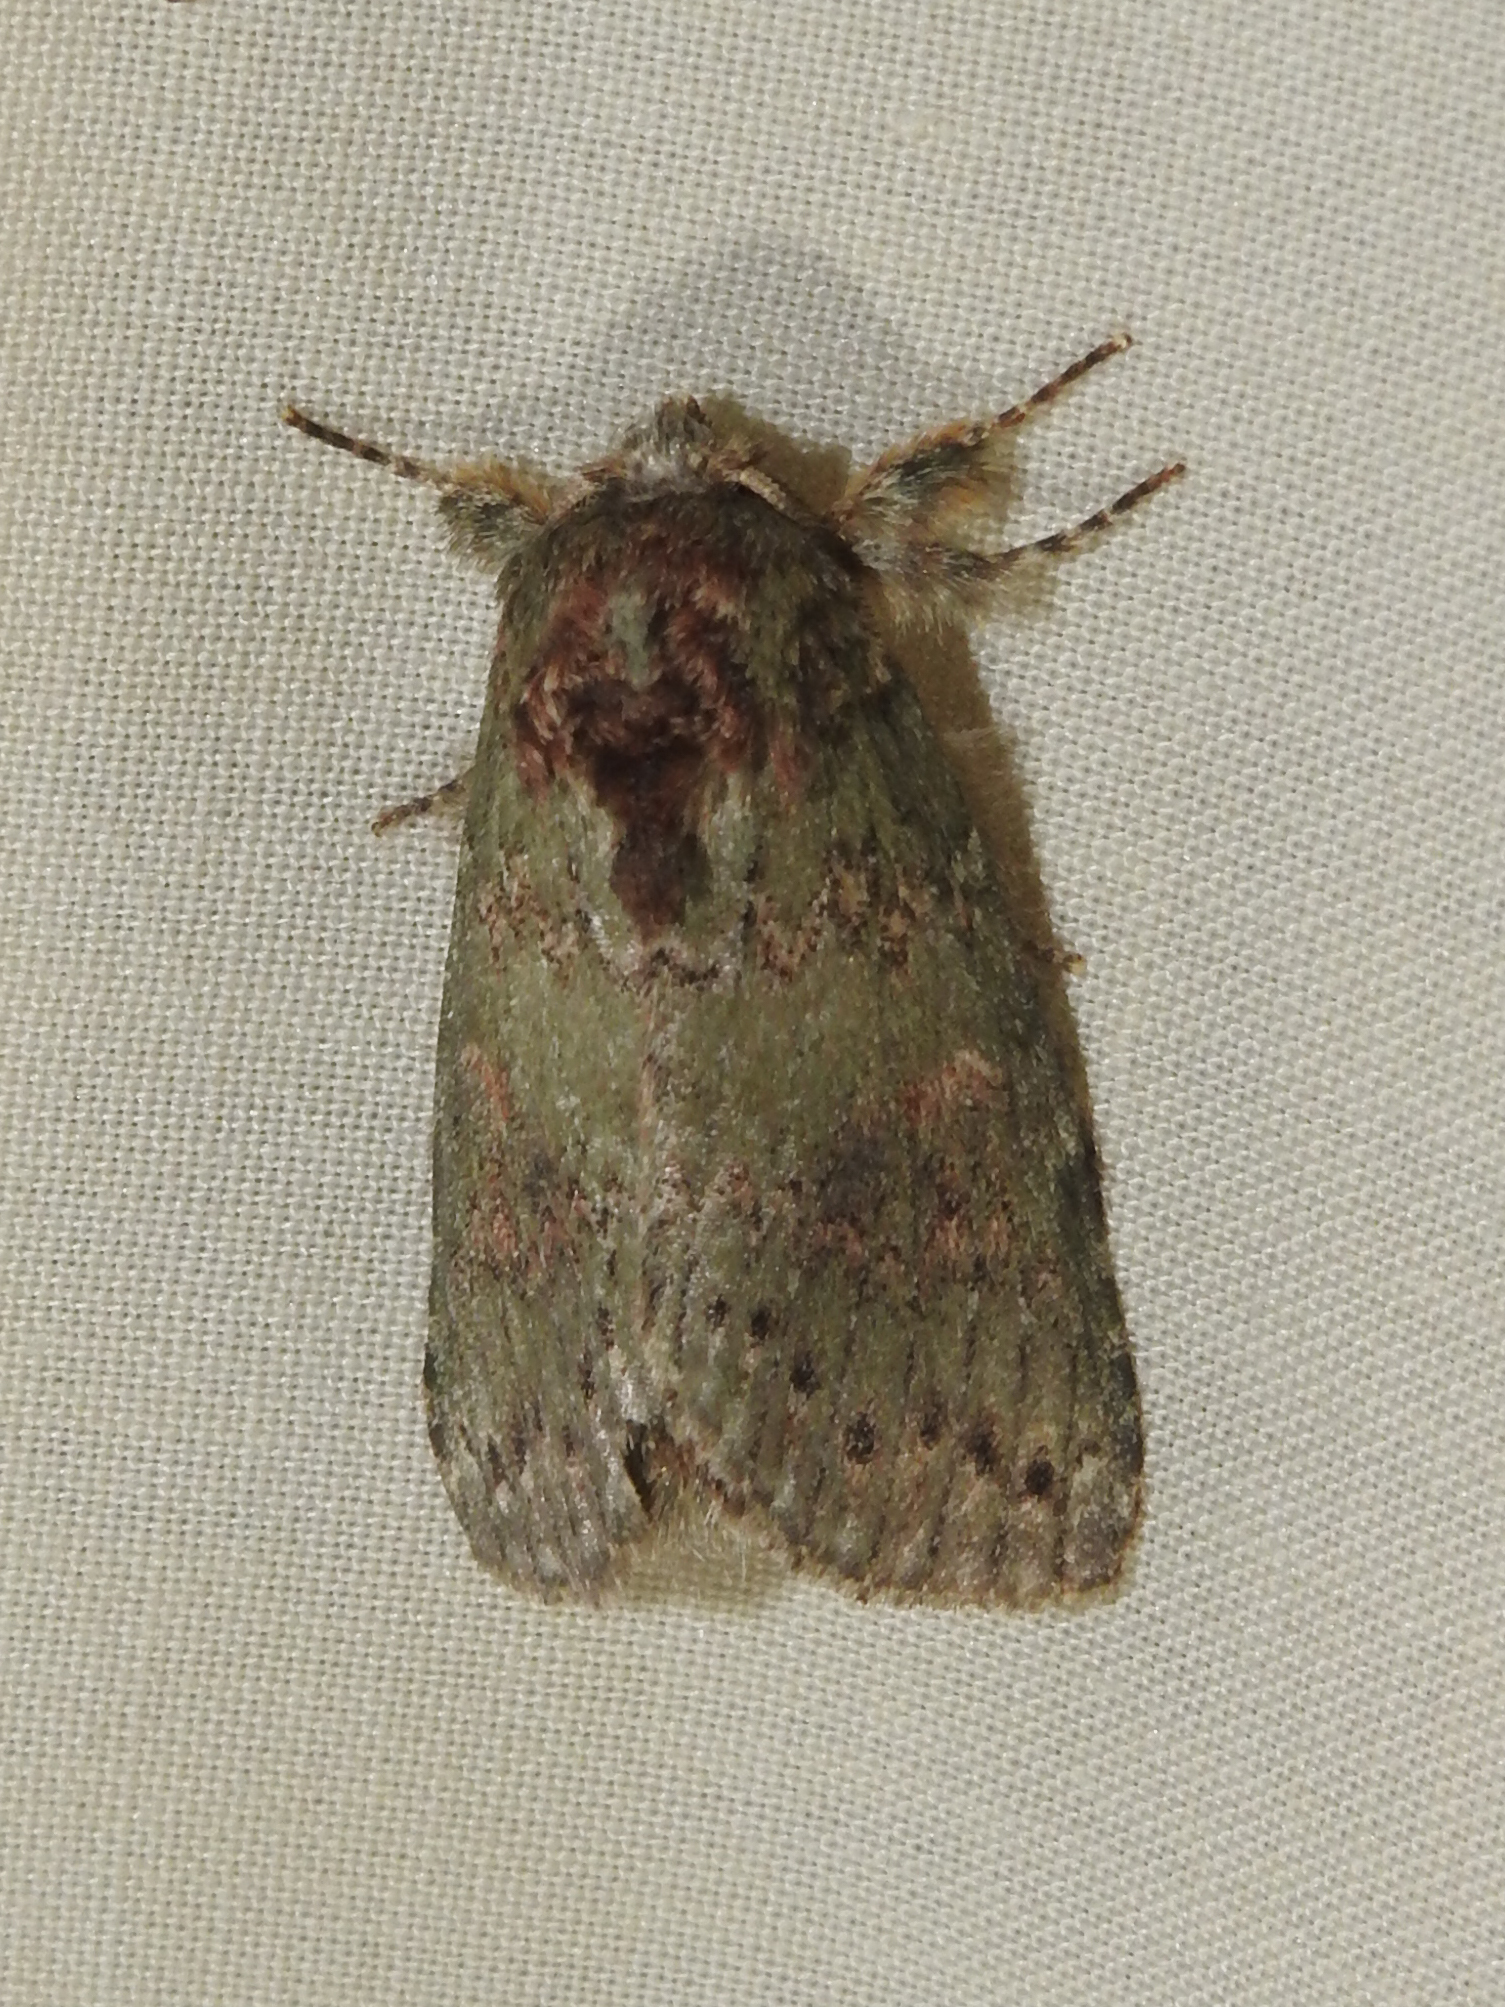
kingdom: Animalia
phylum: Arthropoda
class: Insecta
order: Lepidoptera
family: Notodontidae
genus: Disphragis
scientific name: Disphragis Cecrita biundata
